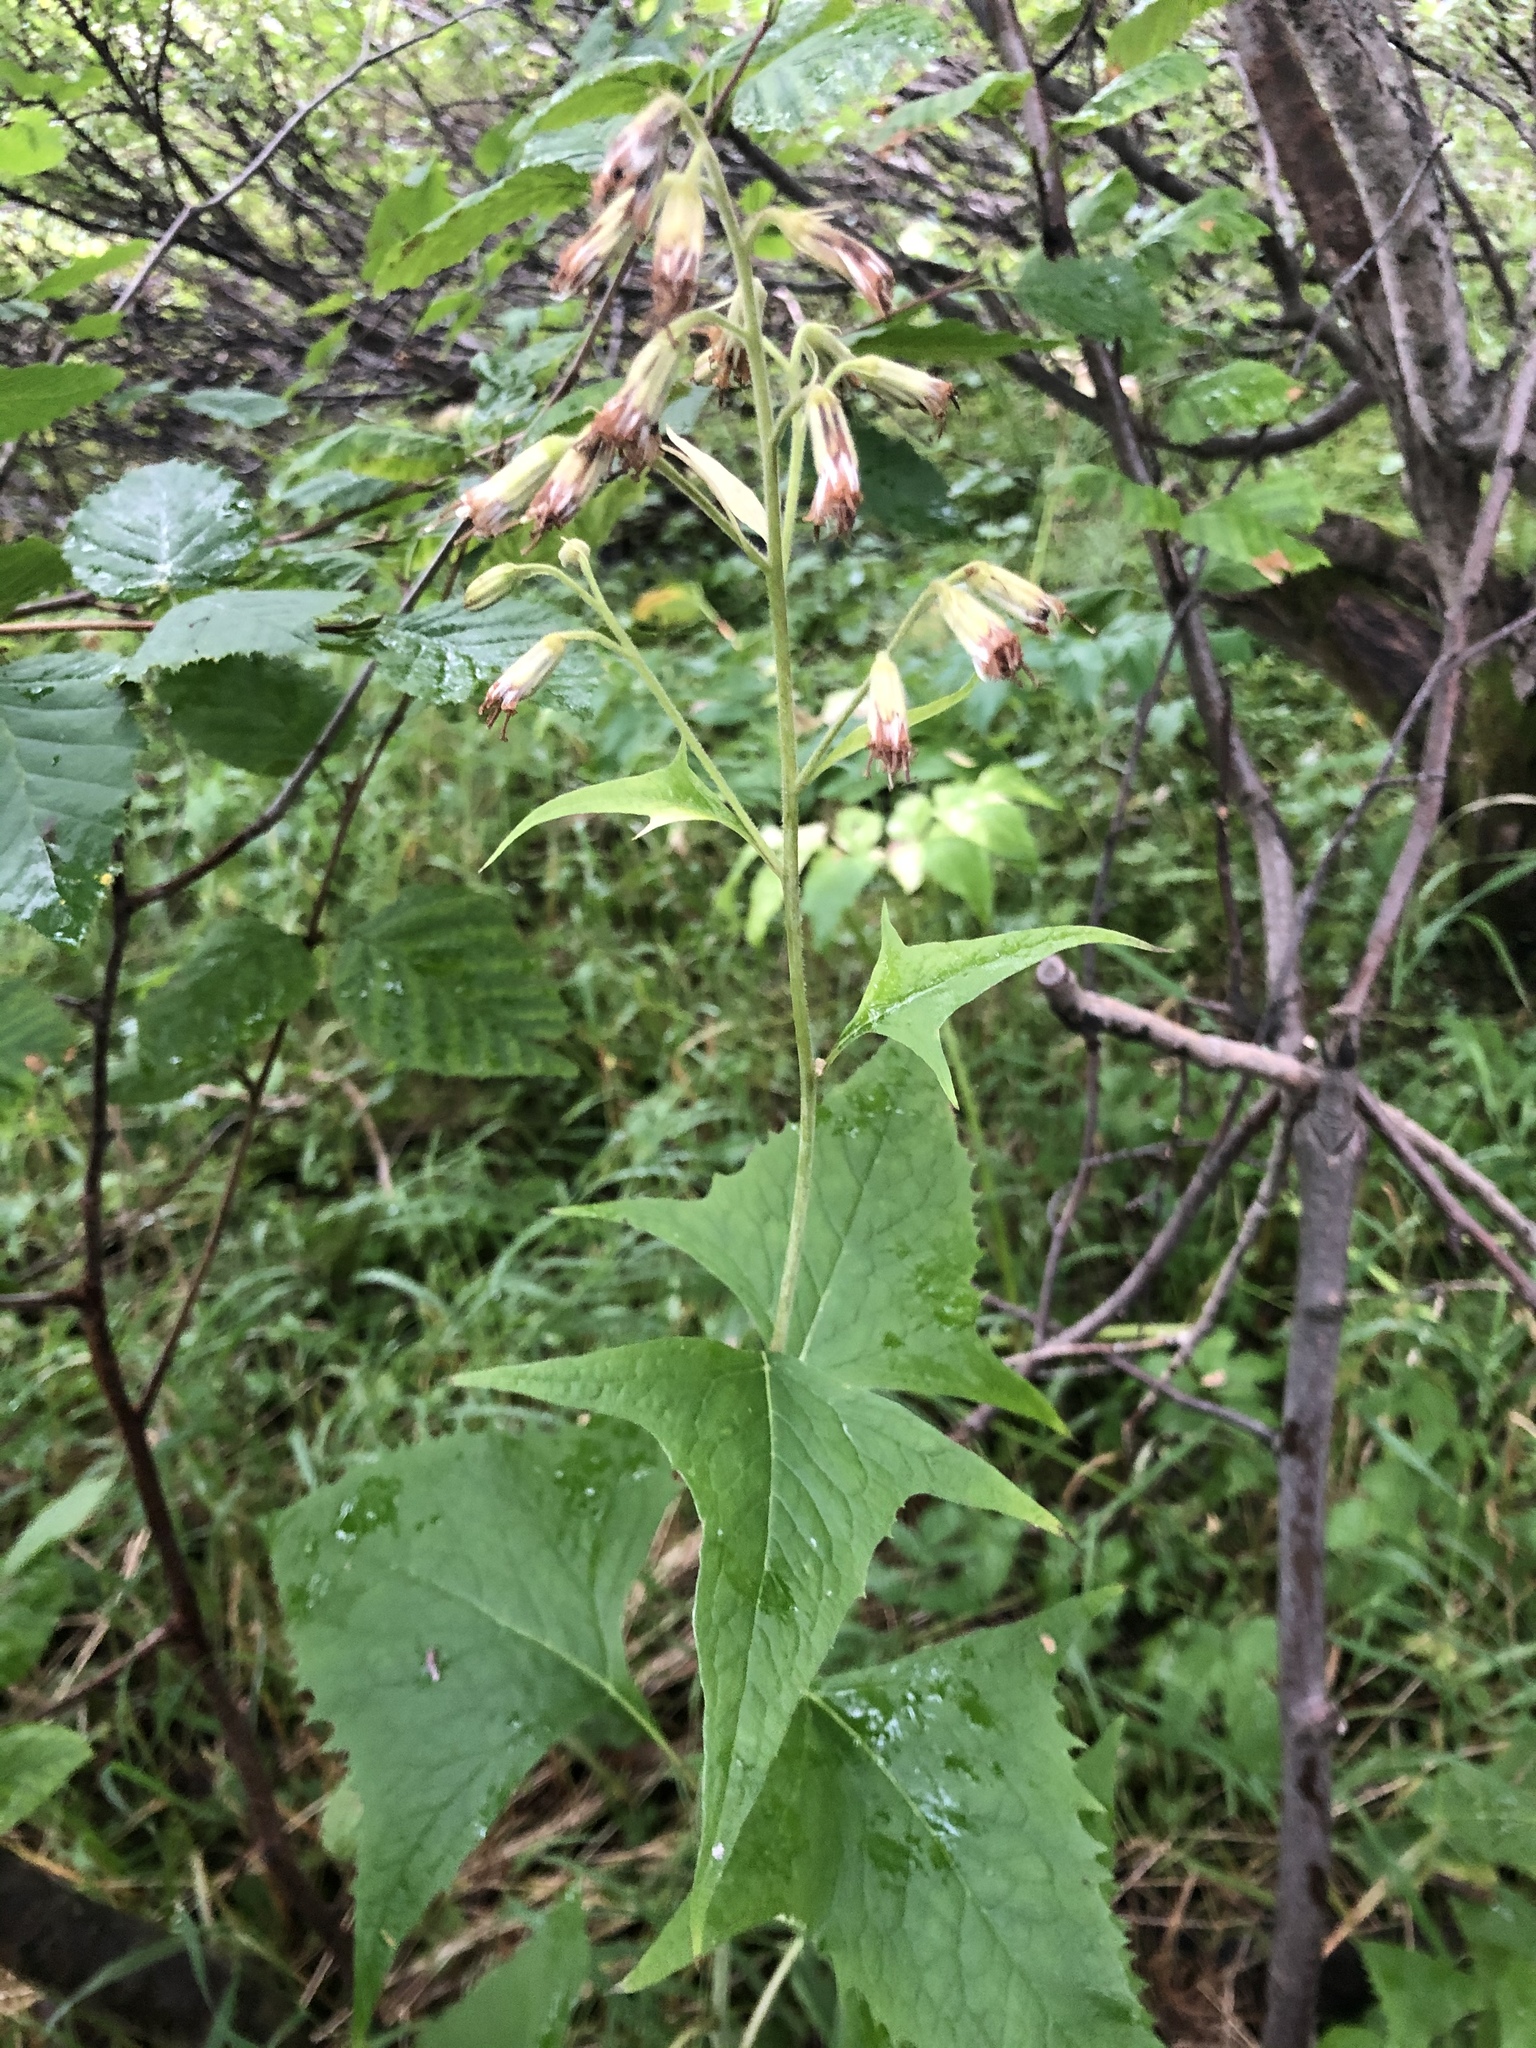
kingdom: Plantae
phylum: Tracheophyta
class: Magnoliopsida
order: Asterales
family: Asteraceae
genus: Parasenecio
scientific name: Parasenecio hastatus
